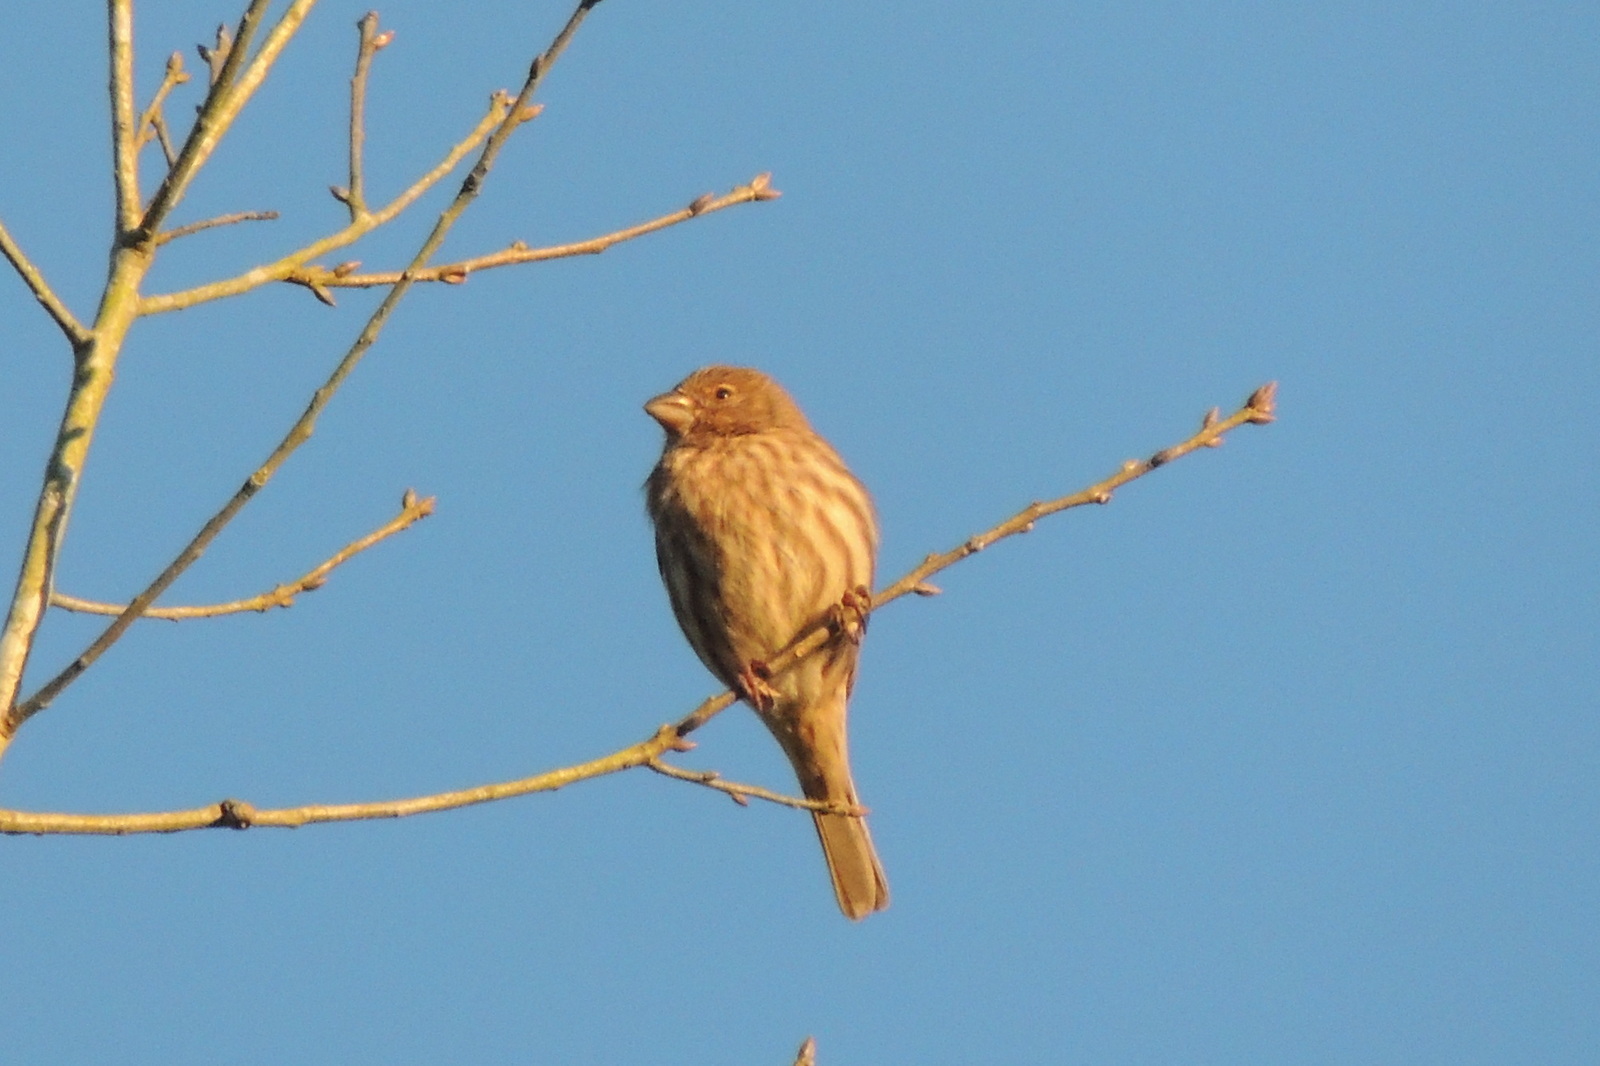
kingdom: Animalia
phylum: Chordata
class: Aves
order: Passeriformes
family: Fringillidae
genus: Haemorhous
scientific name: Haemorhous mexicanus
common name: House finch
